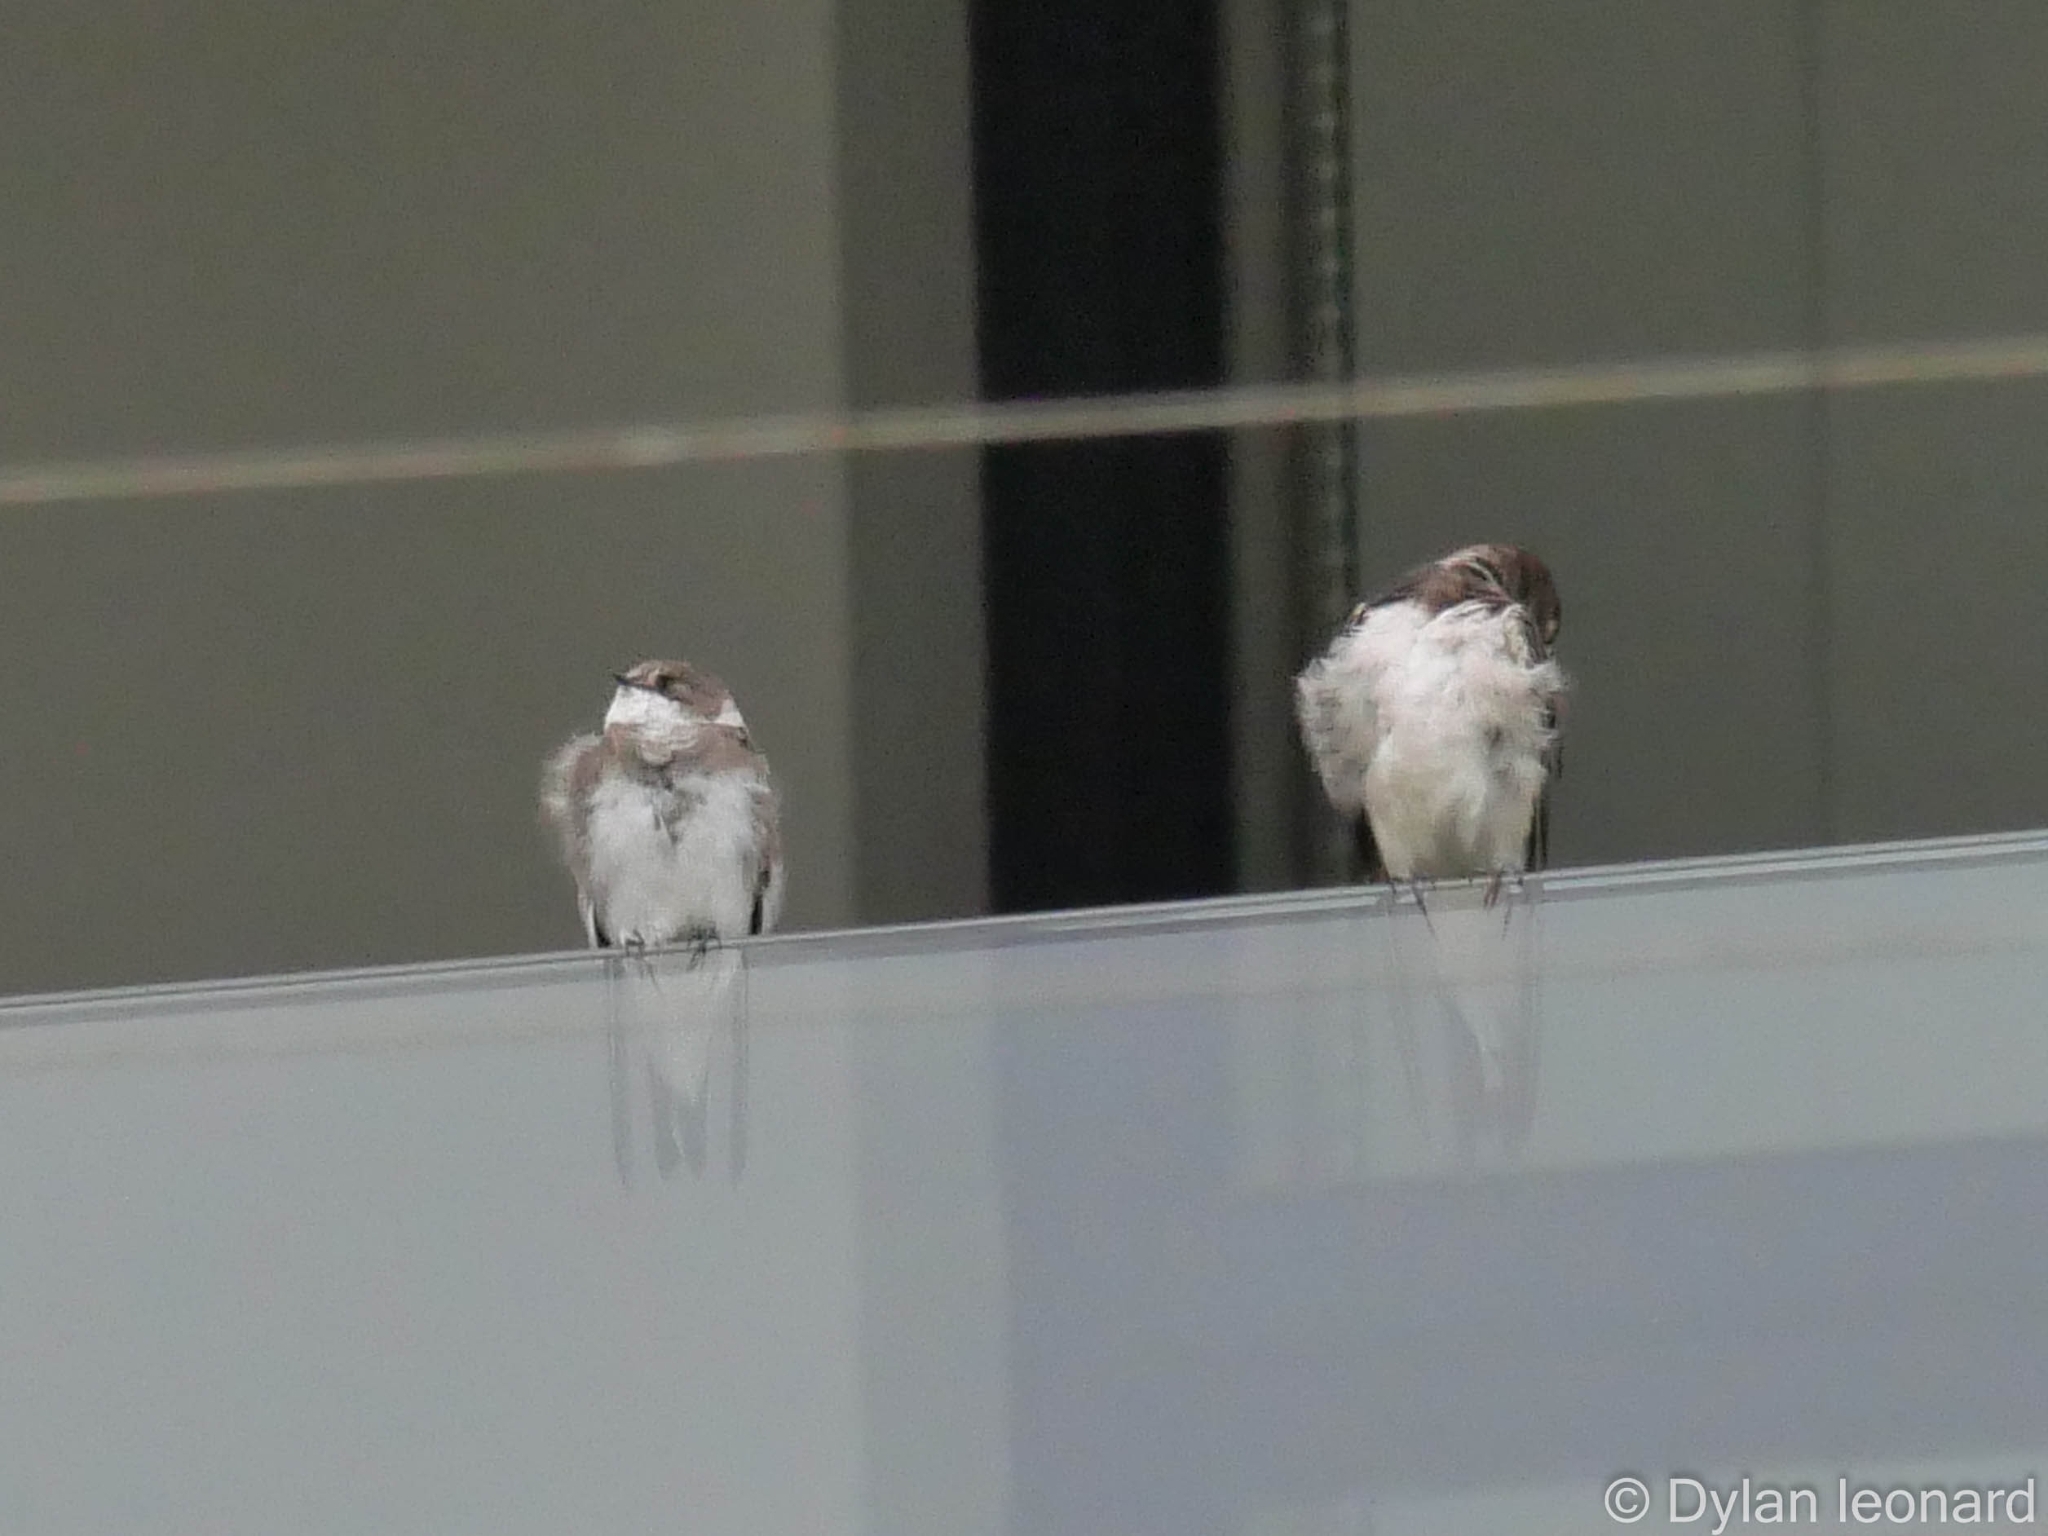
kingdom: Animalia
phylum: Chordata
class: Aves
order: Passeriformes
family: Hirundinidae
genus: Riparia
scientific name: Riparia riparia
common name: Sand martin
